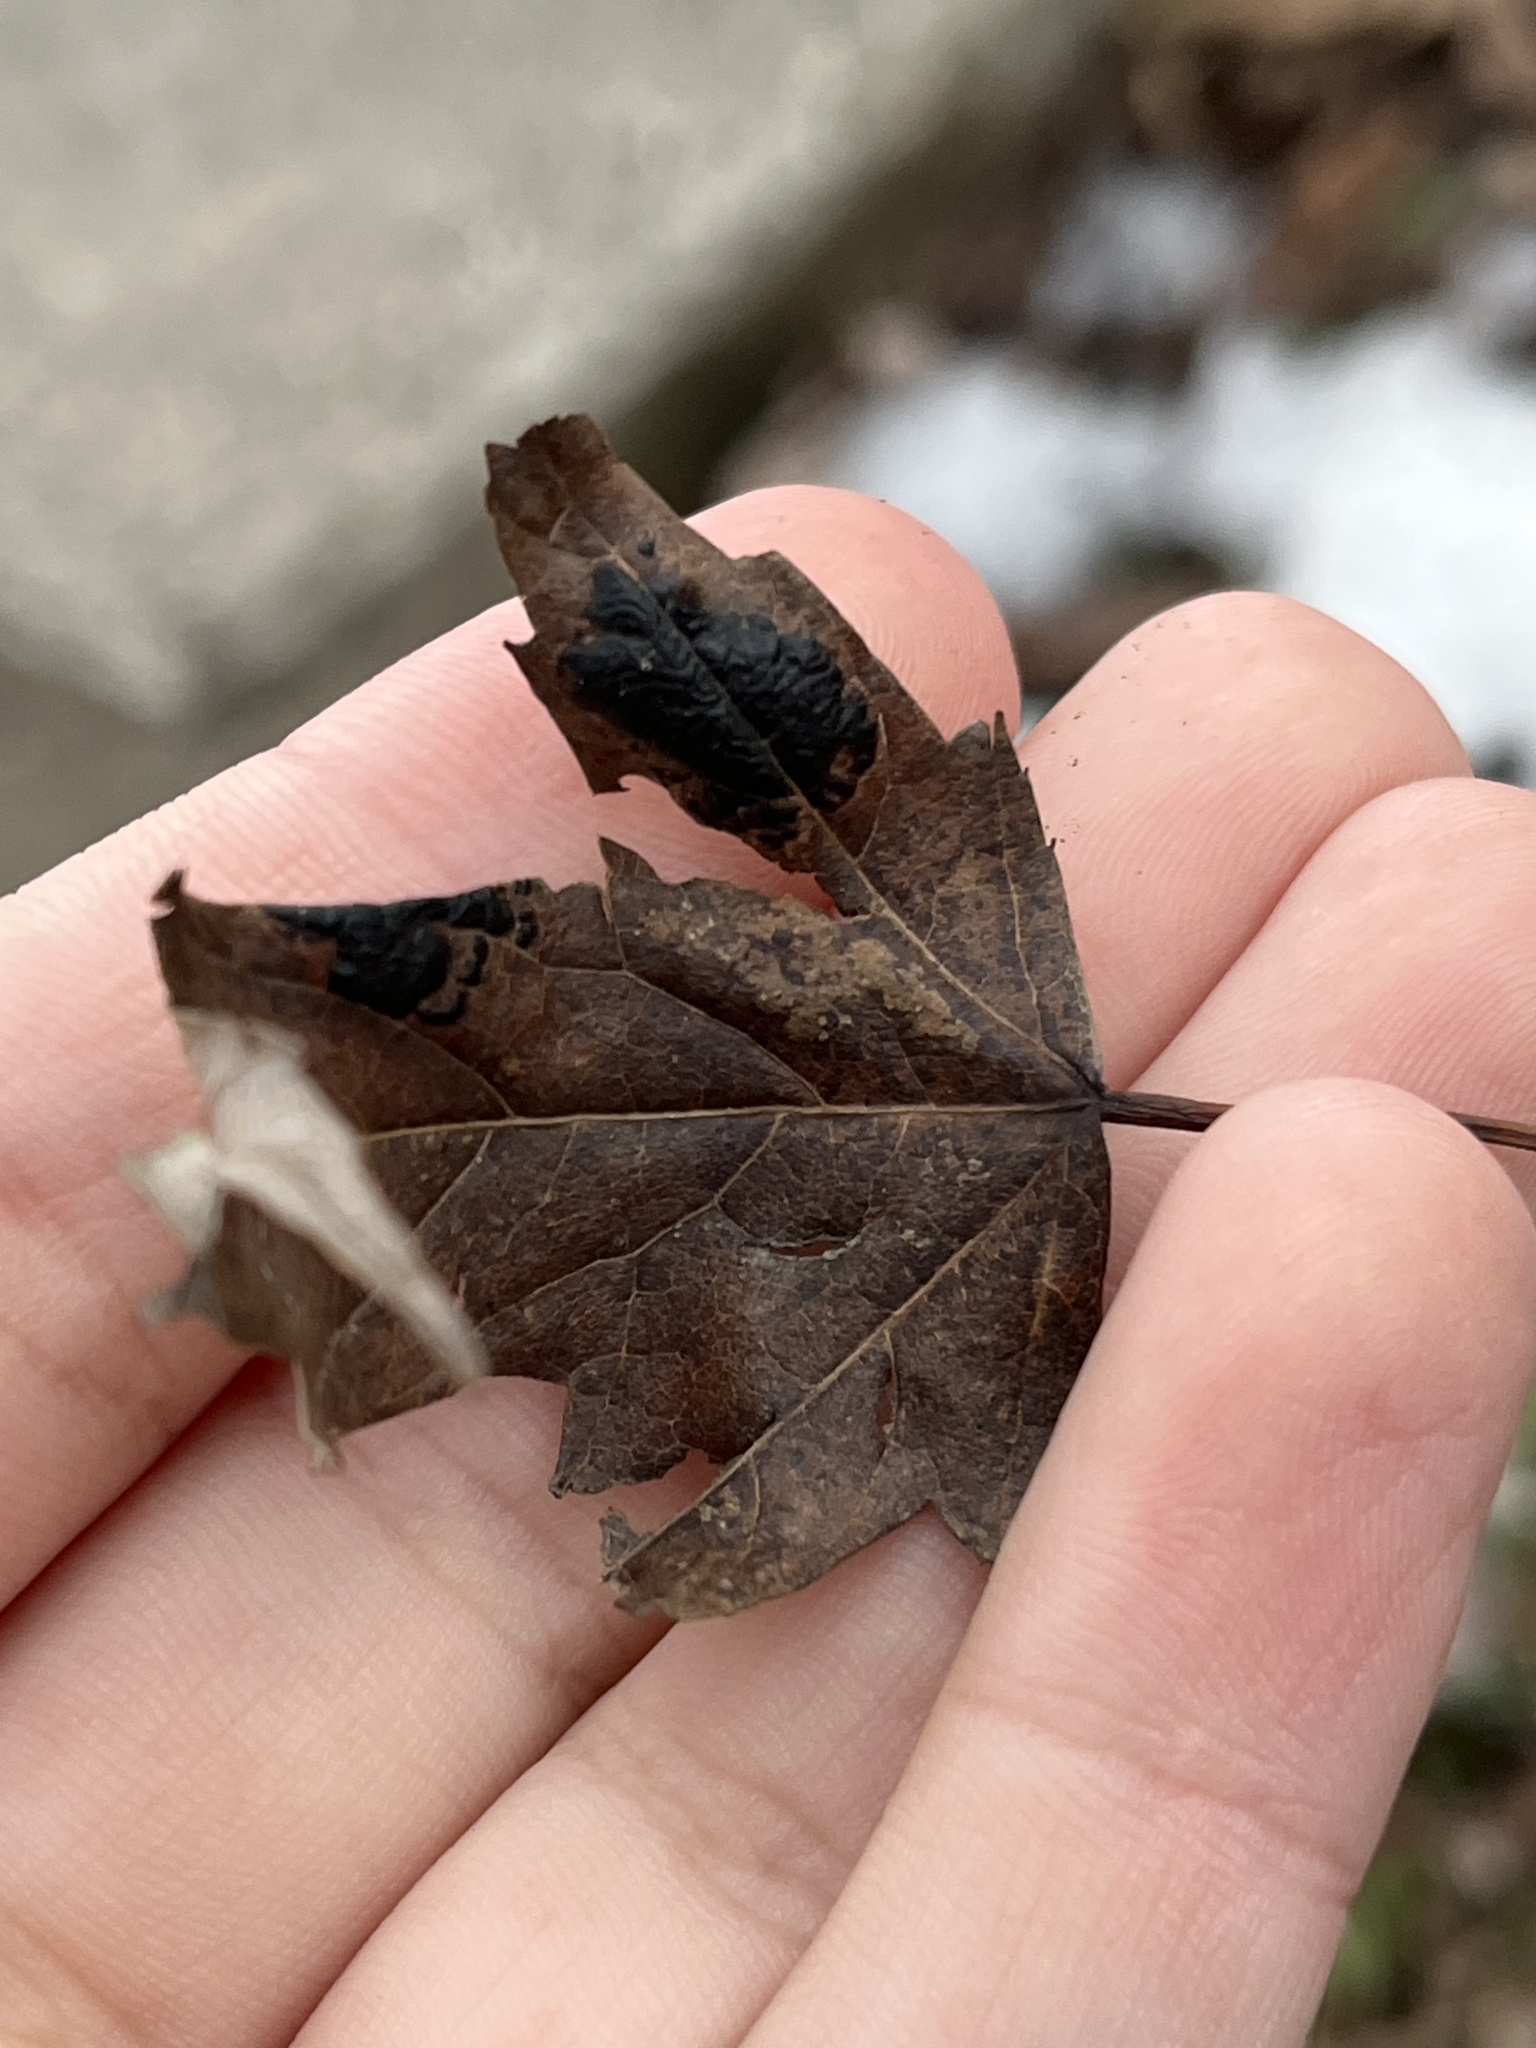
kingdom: Fungi
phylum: Ascomycota
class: Leotiomycetes
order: Rhytismatales
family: Rhytismataceae
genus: Rhytisma
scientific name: Rhytisma americanum
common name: American tar spot
